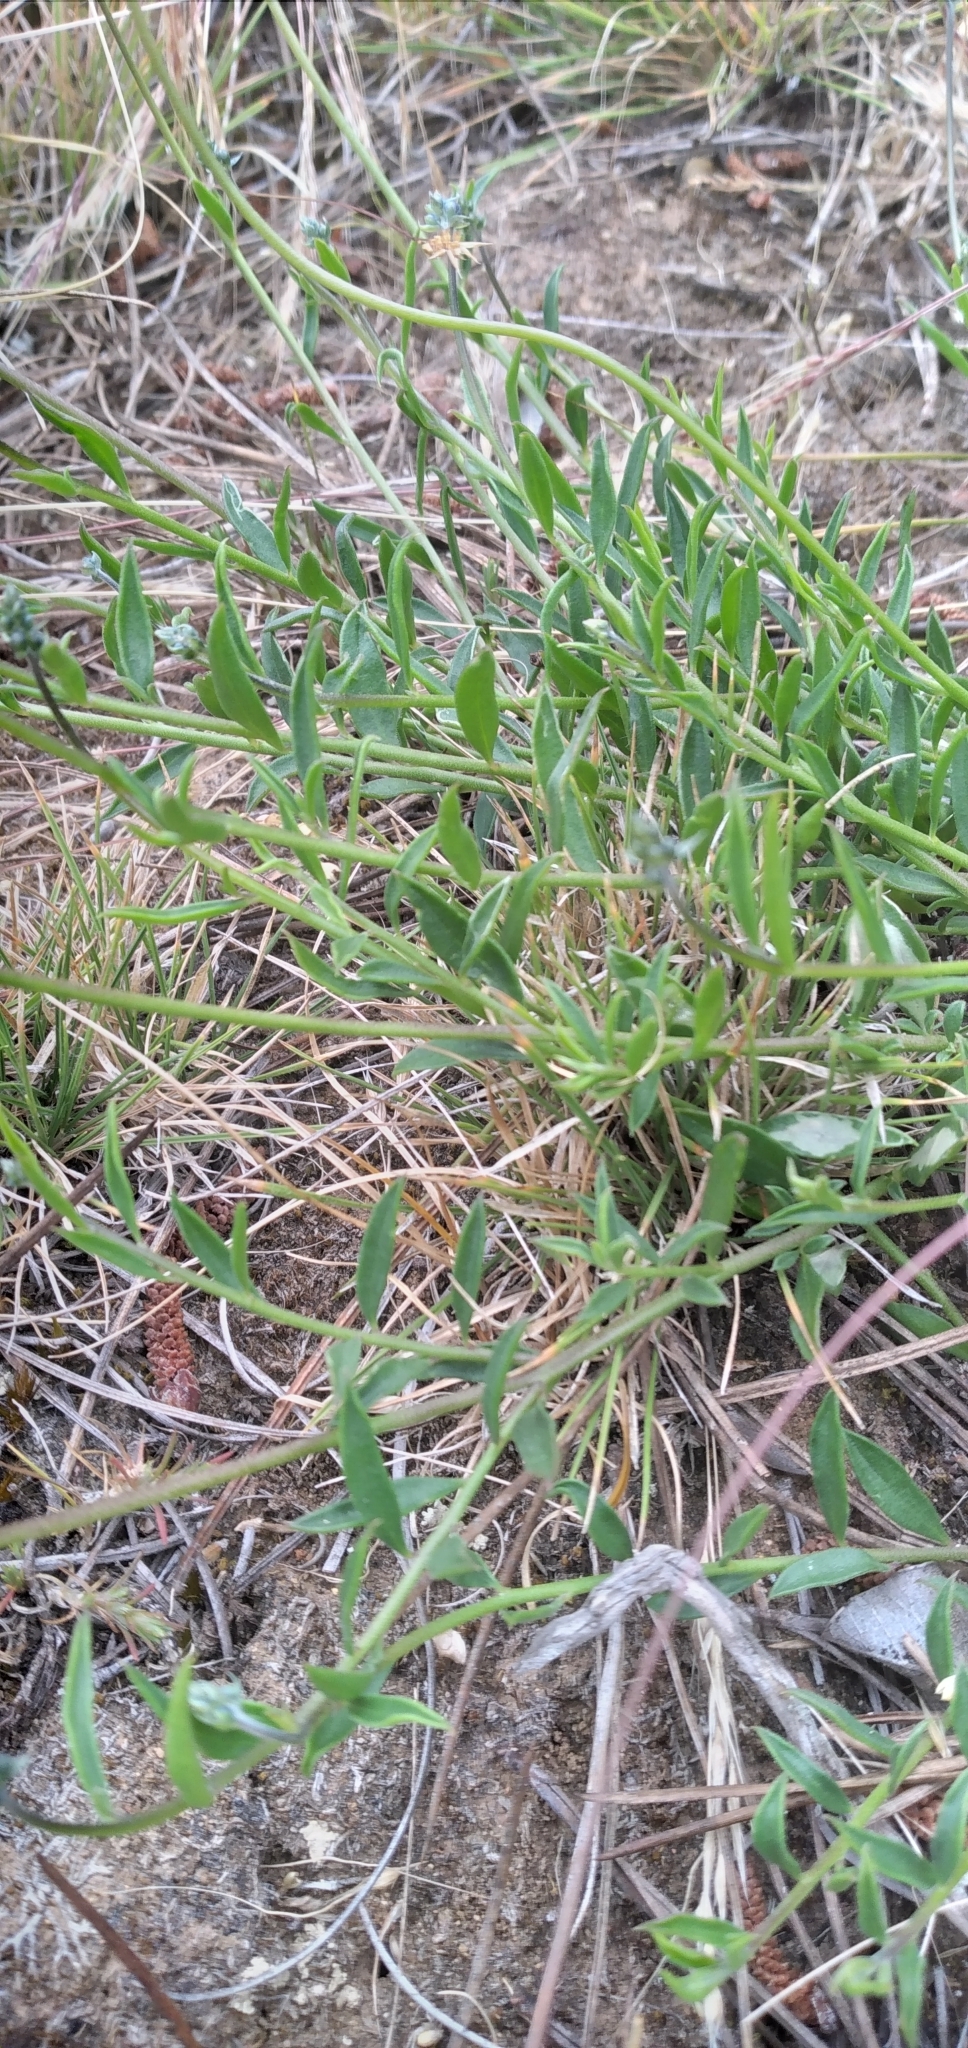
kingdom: Plantae
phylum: Tracheophyta
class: Magnoliopsida
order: Fabales
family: Polygalaceae
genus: Monnina
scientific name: Monnina linearifolia
